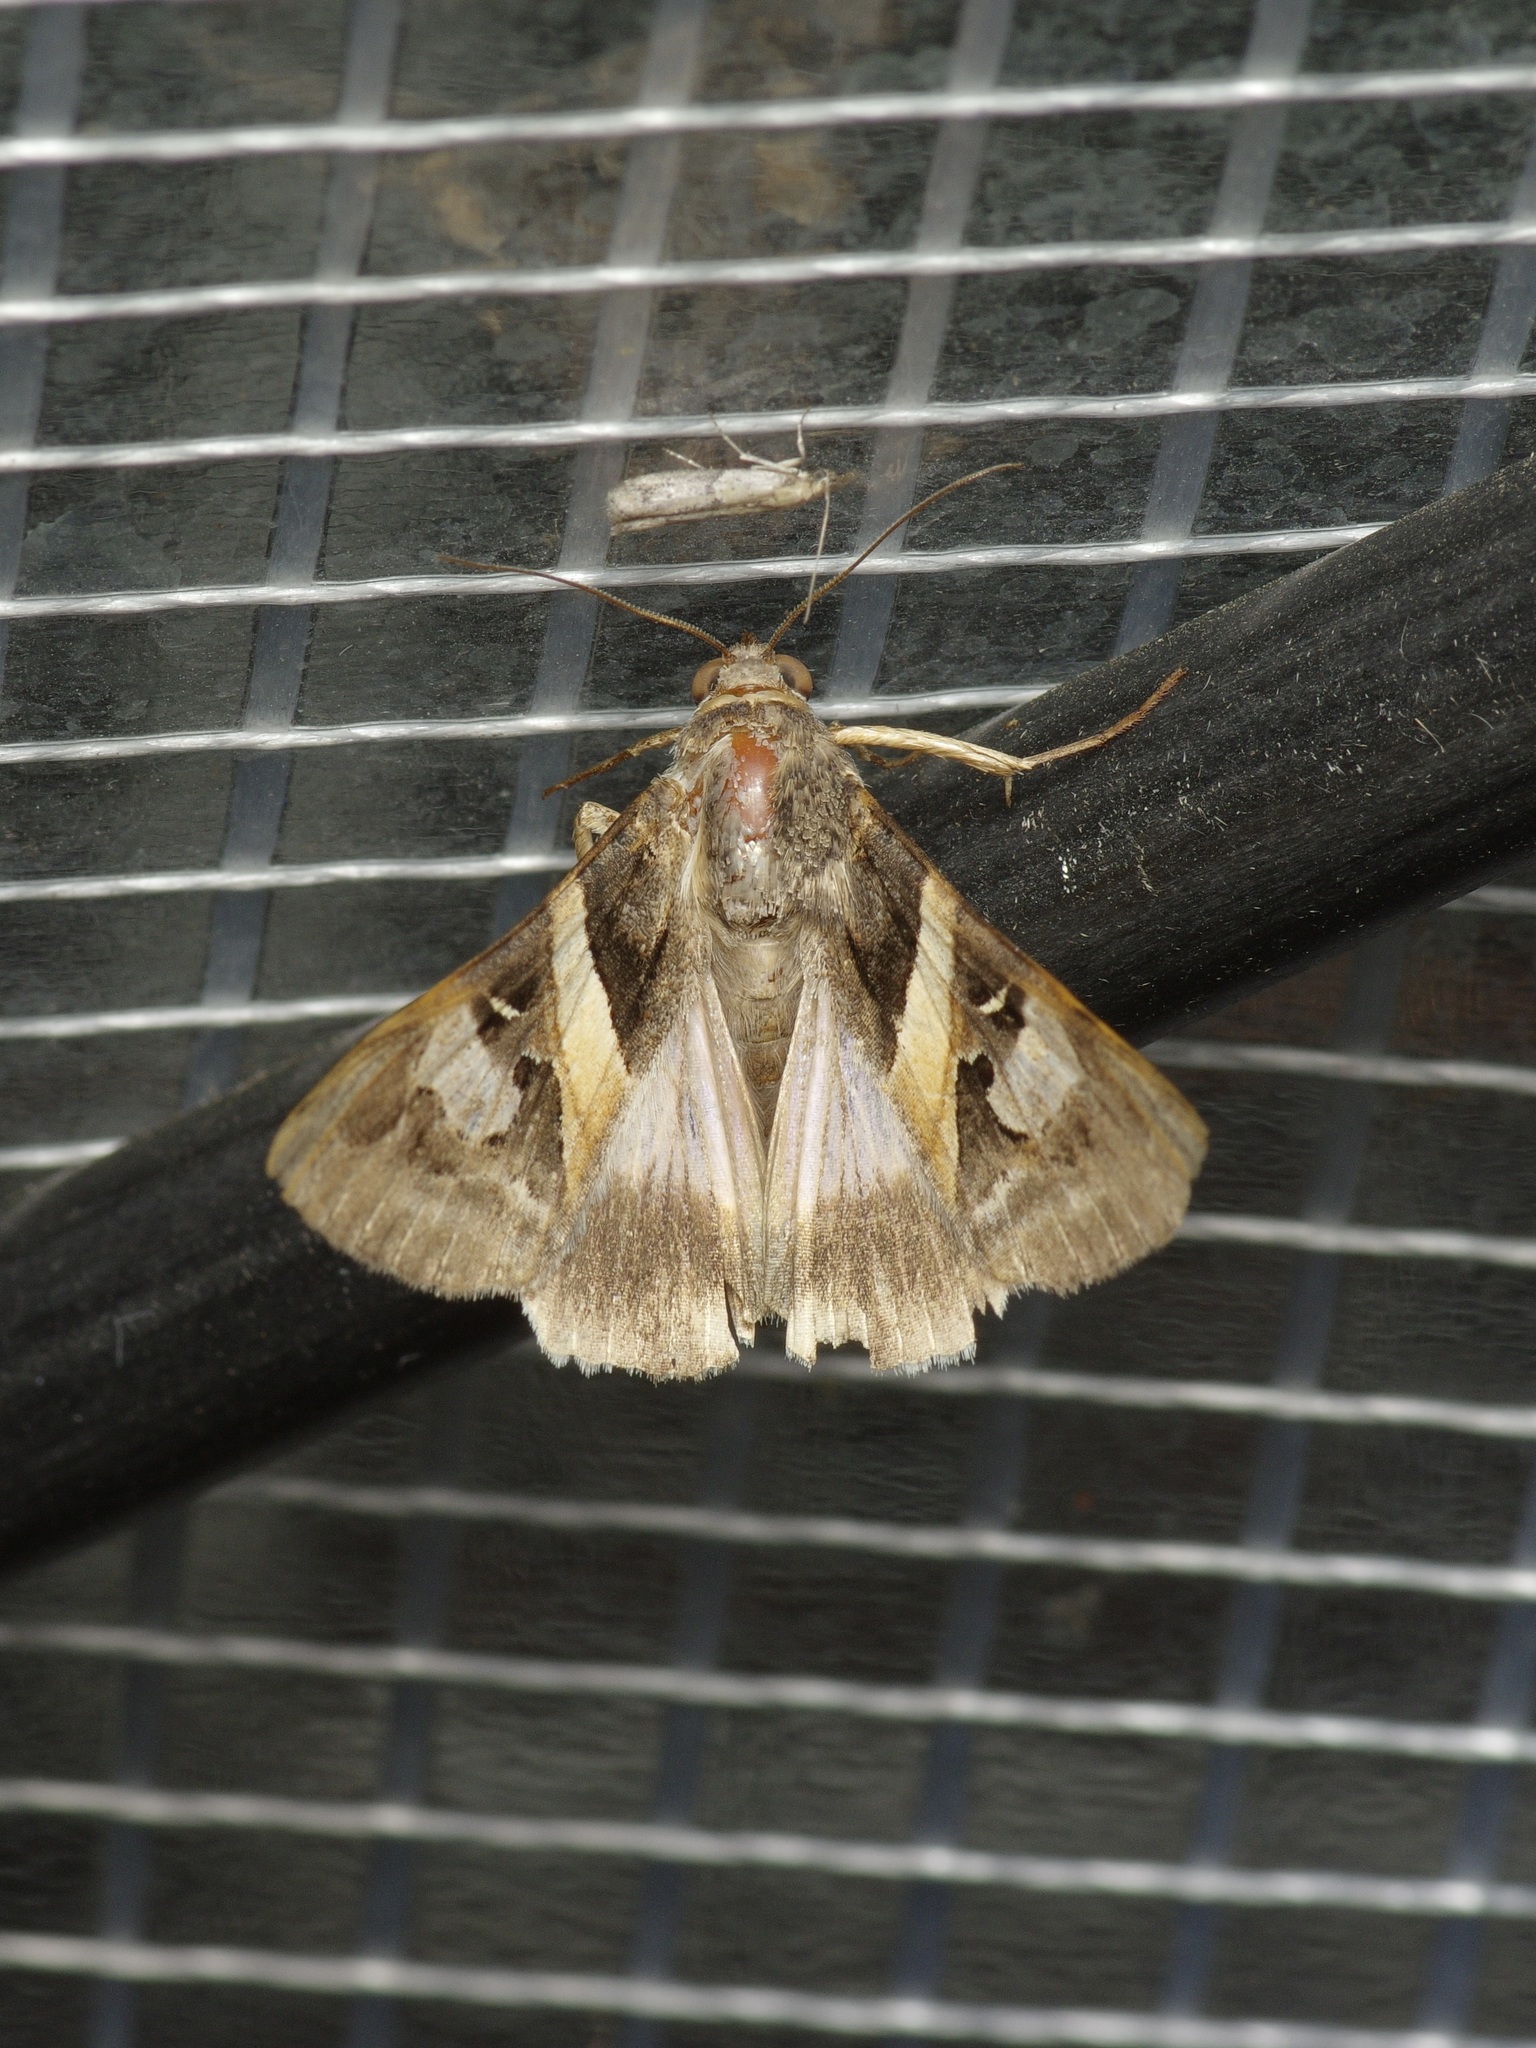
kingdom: Animalia
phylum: Arthropoda
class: Insecta
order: Lepidoptera
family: Erebidae
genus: Melipotis
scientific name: Melipotis indomita
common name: Moth
